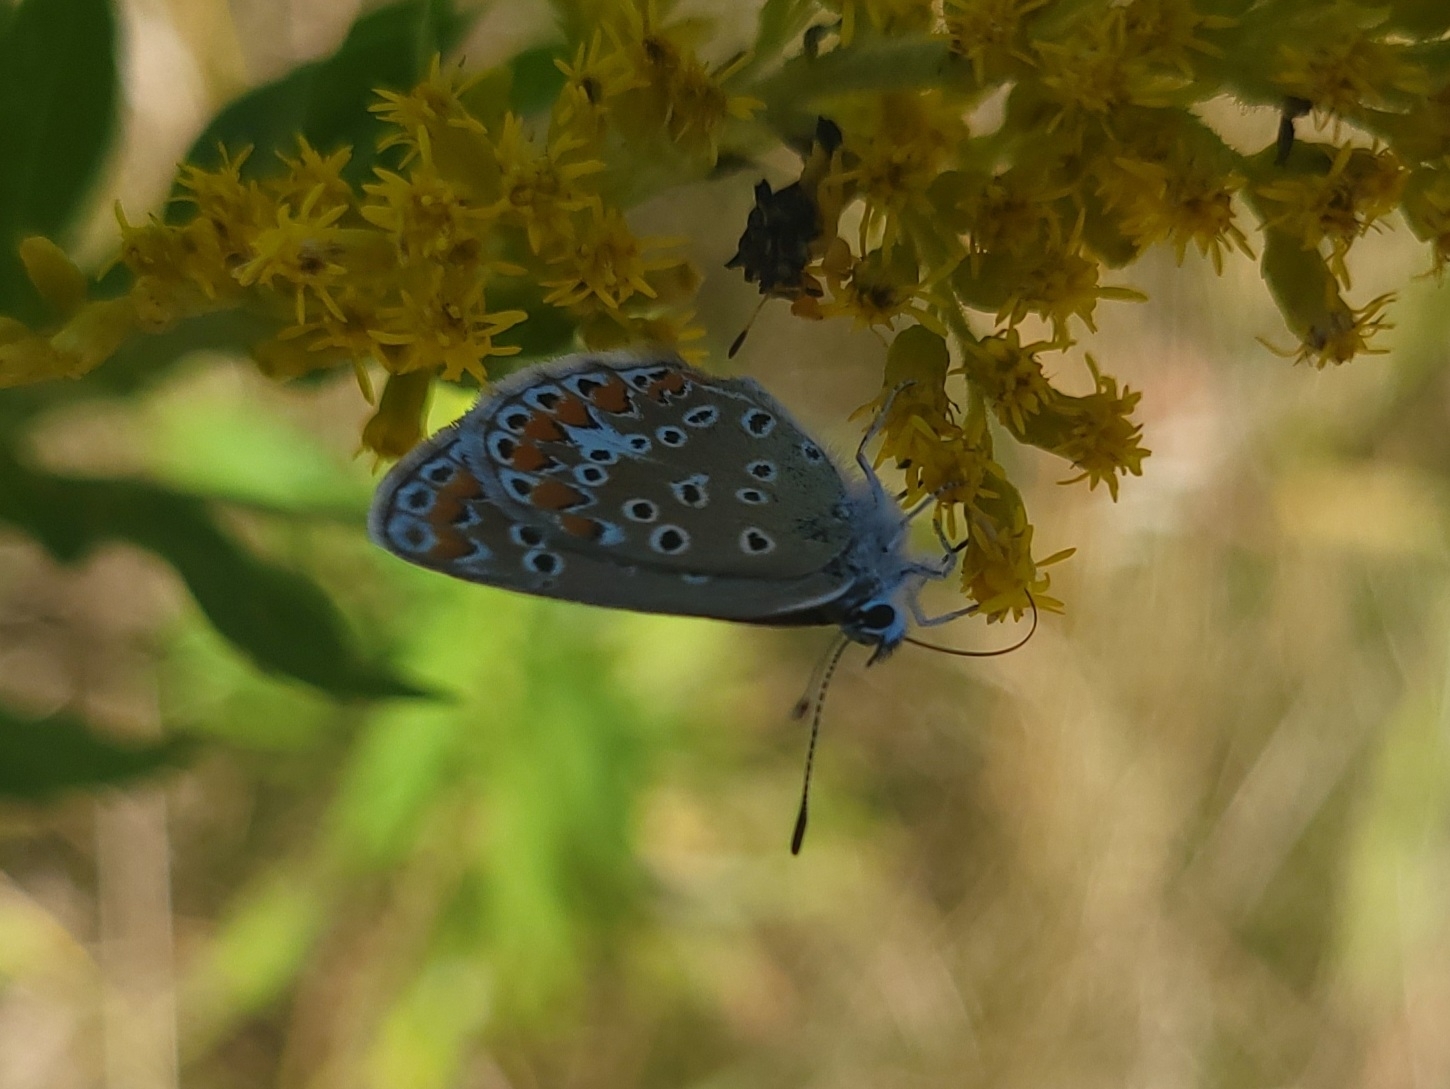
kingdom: Animalia
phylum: Arthropoda
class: Insecta
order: Lepidoptera
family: Lycaenidae
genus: Polyommatus
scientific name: Polyommatus icarus
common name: Common blue
